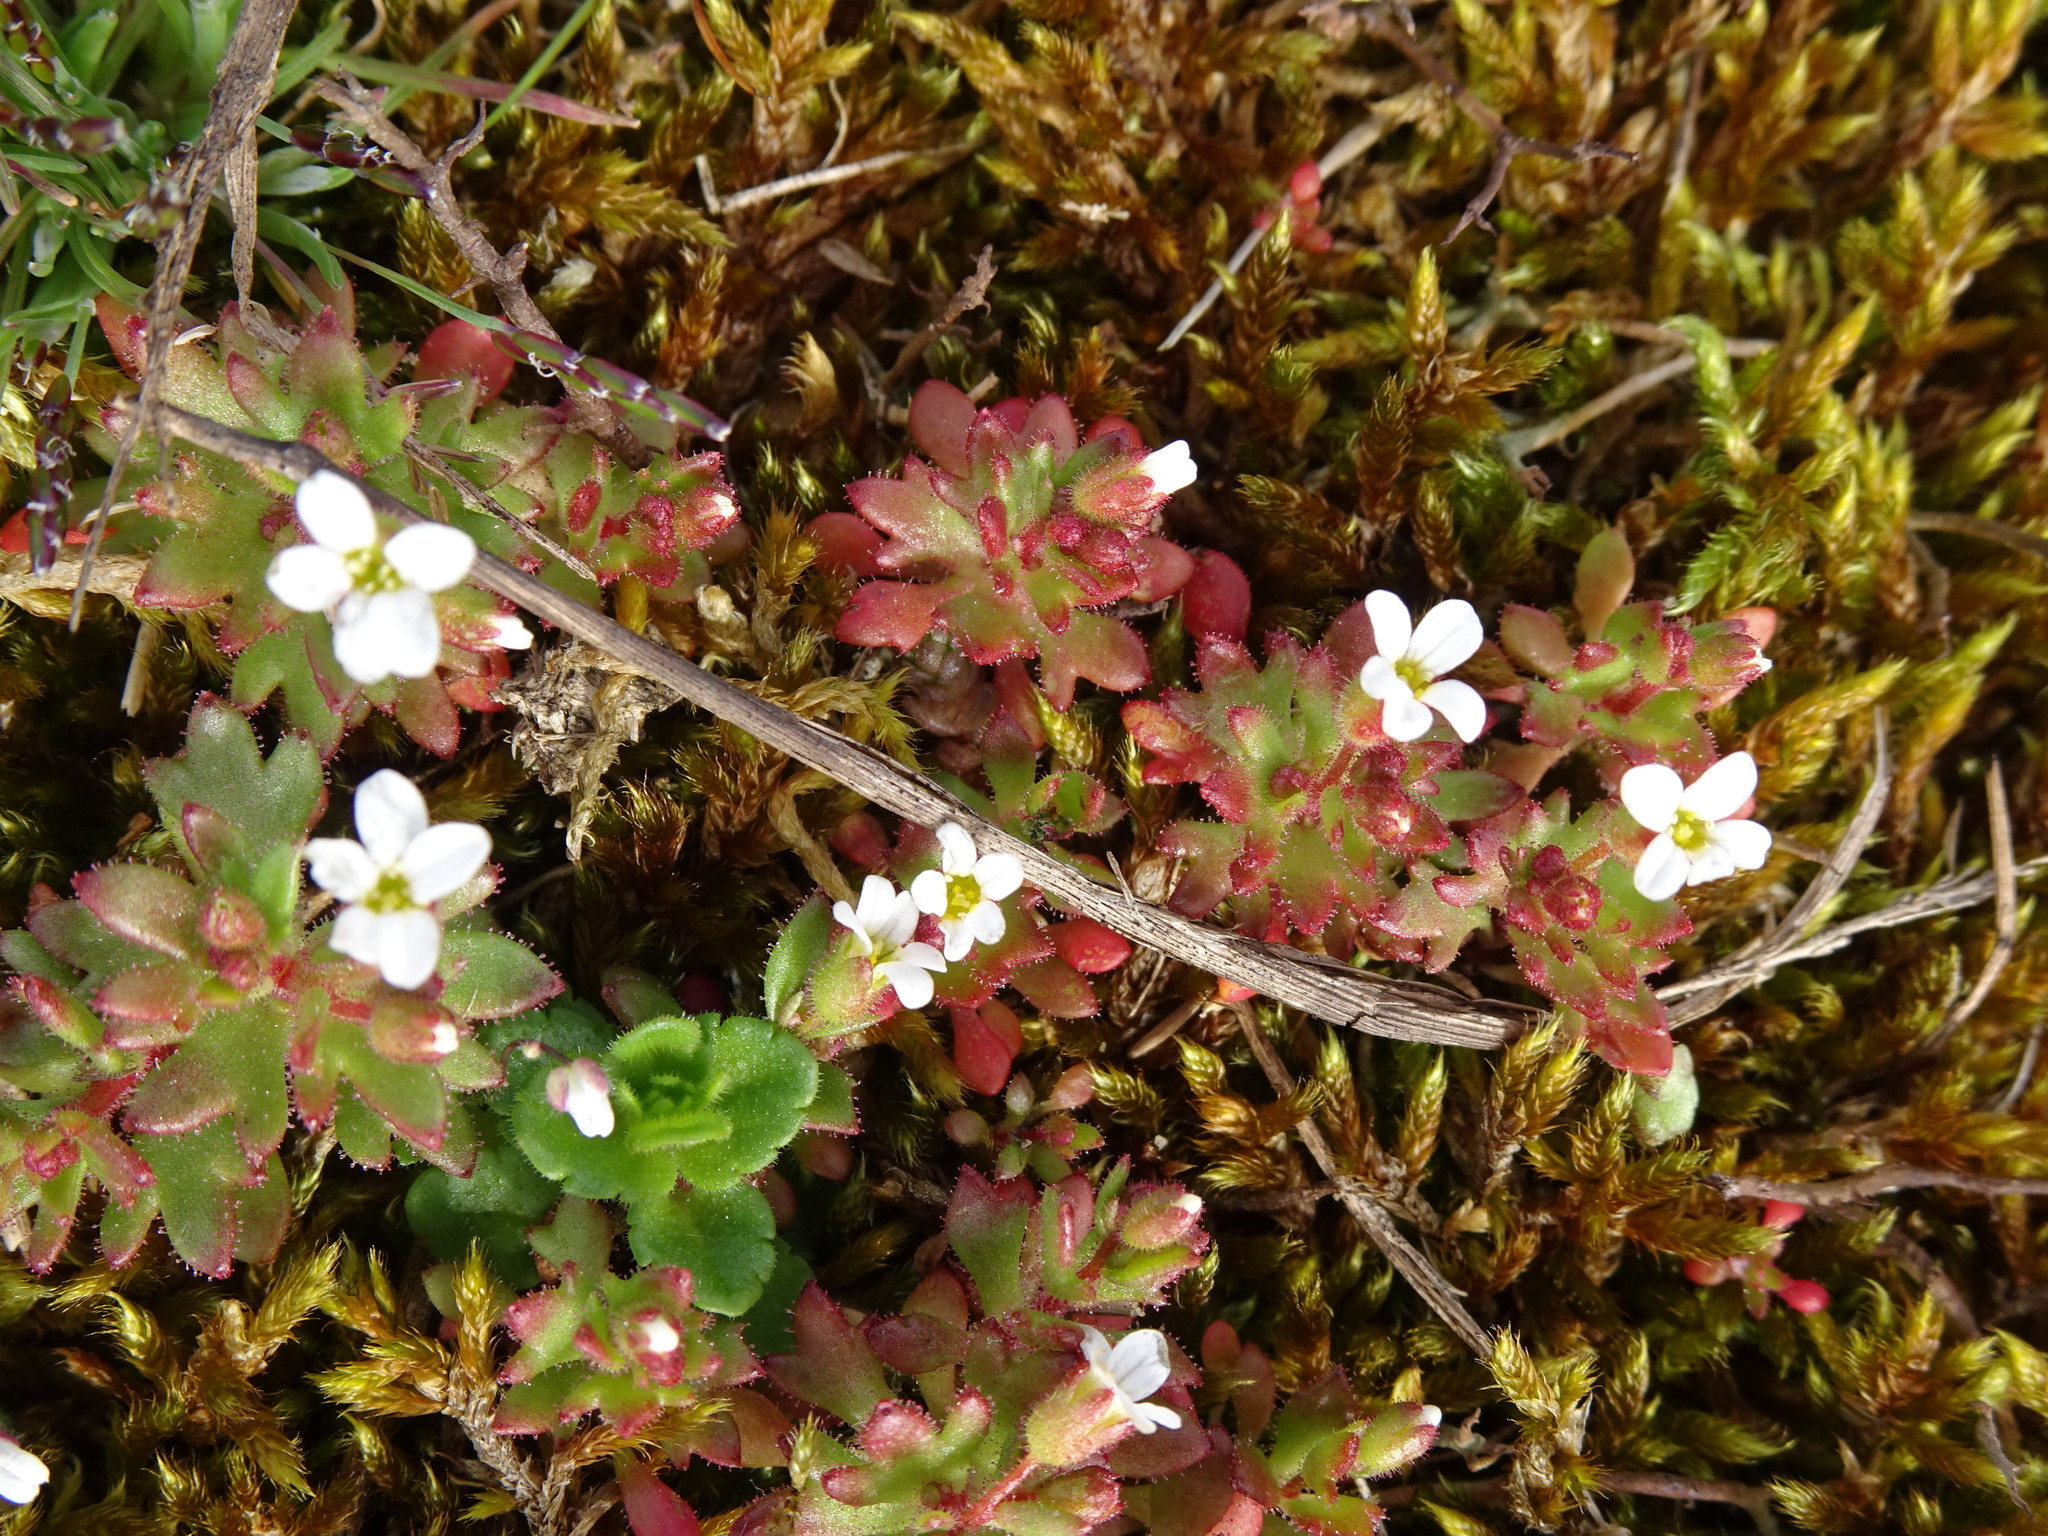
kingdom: Plantae
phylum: Tracheophyta
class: Magnoliopsida
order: Saxifragales
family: Saxifragaceae
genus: Saxifraga
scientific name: Saxifraga tridactylites
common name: Rue-leaved saxifrage
